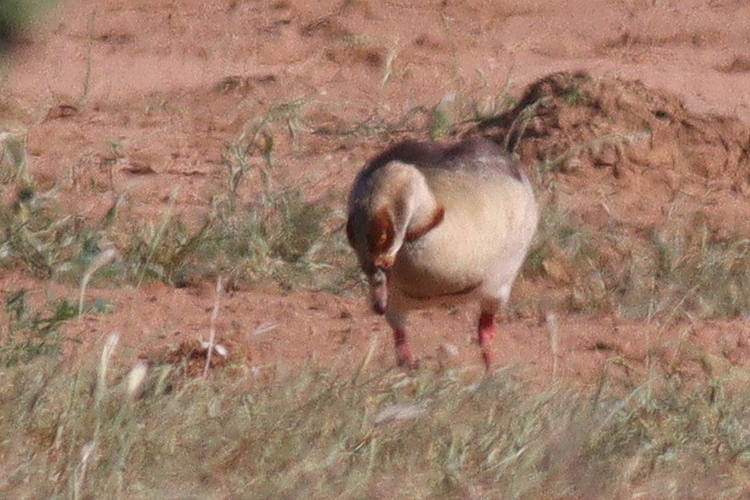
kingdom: Animalia
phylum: Chordata
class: Aves
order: Anseriformes
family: Anatidae
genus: Alopochen
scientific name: Alopochen aegyptiaca
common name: Egyptian goose
